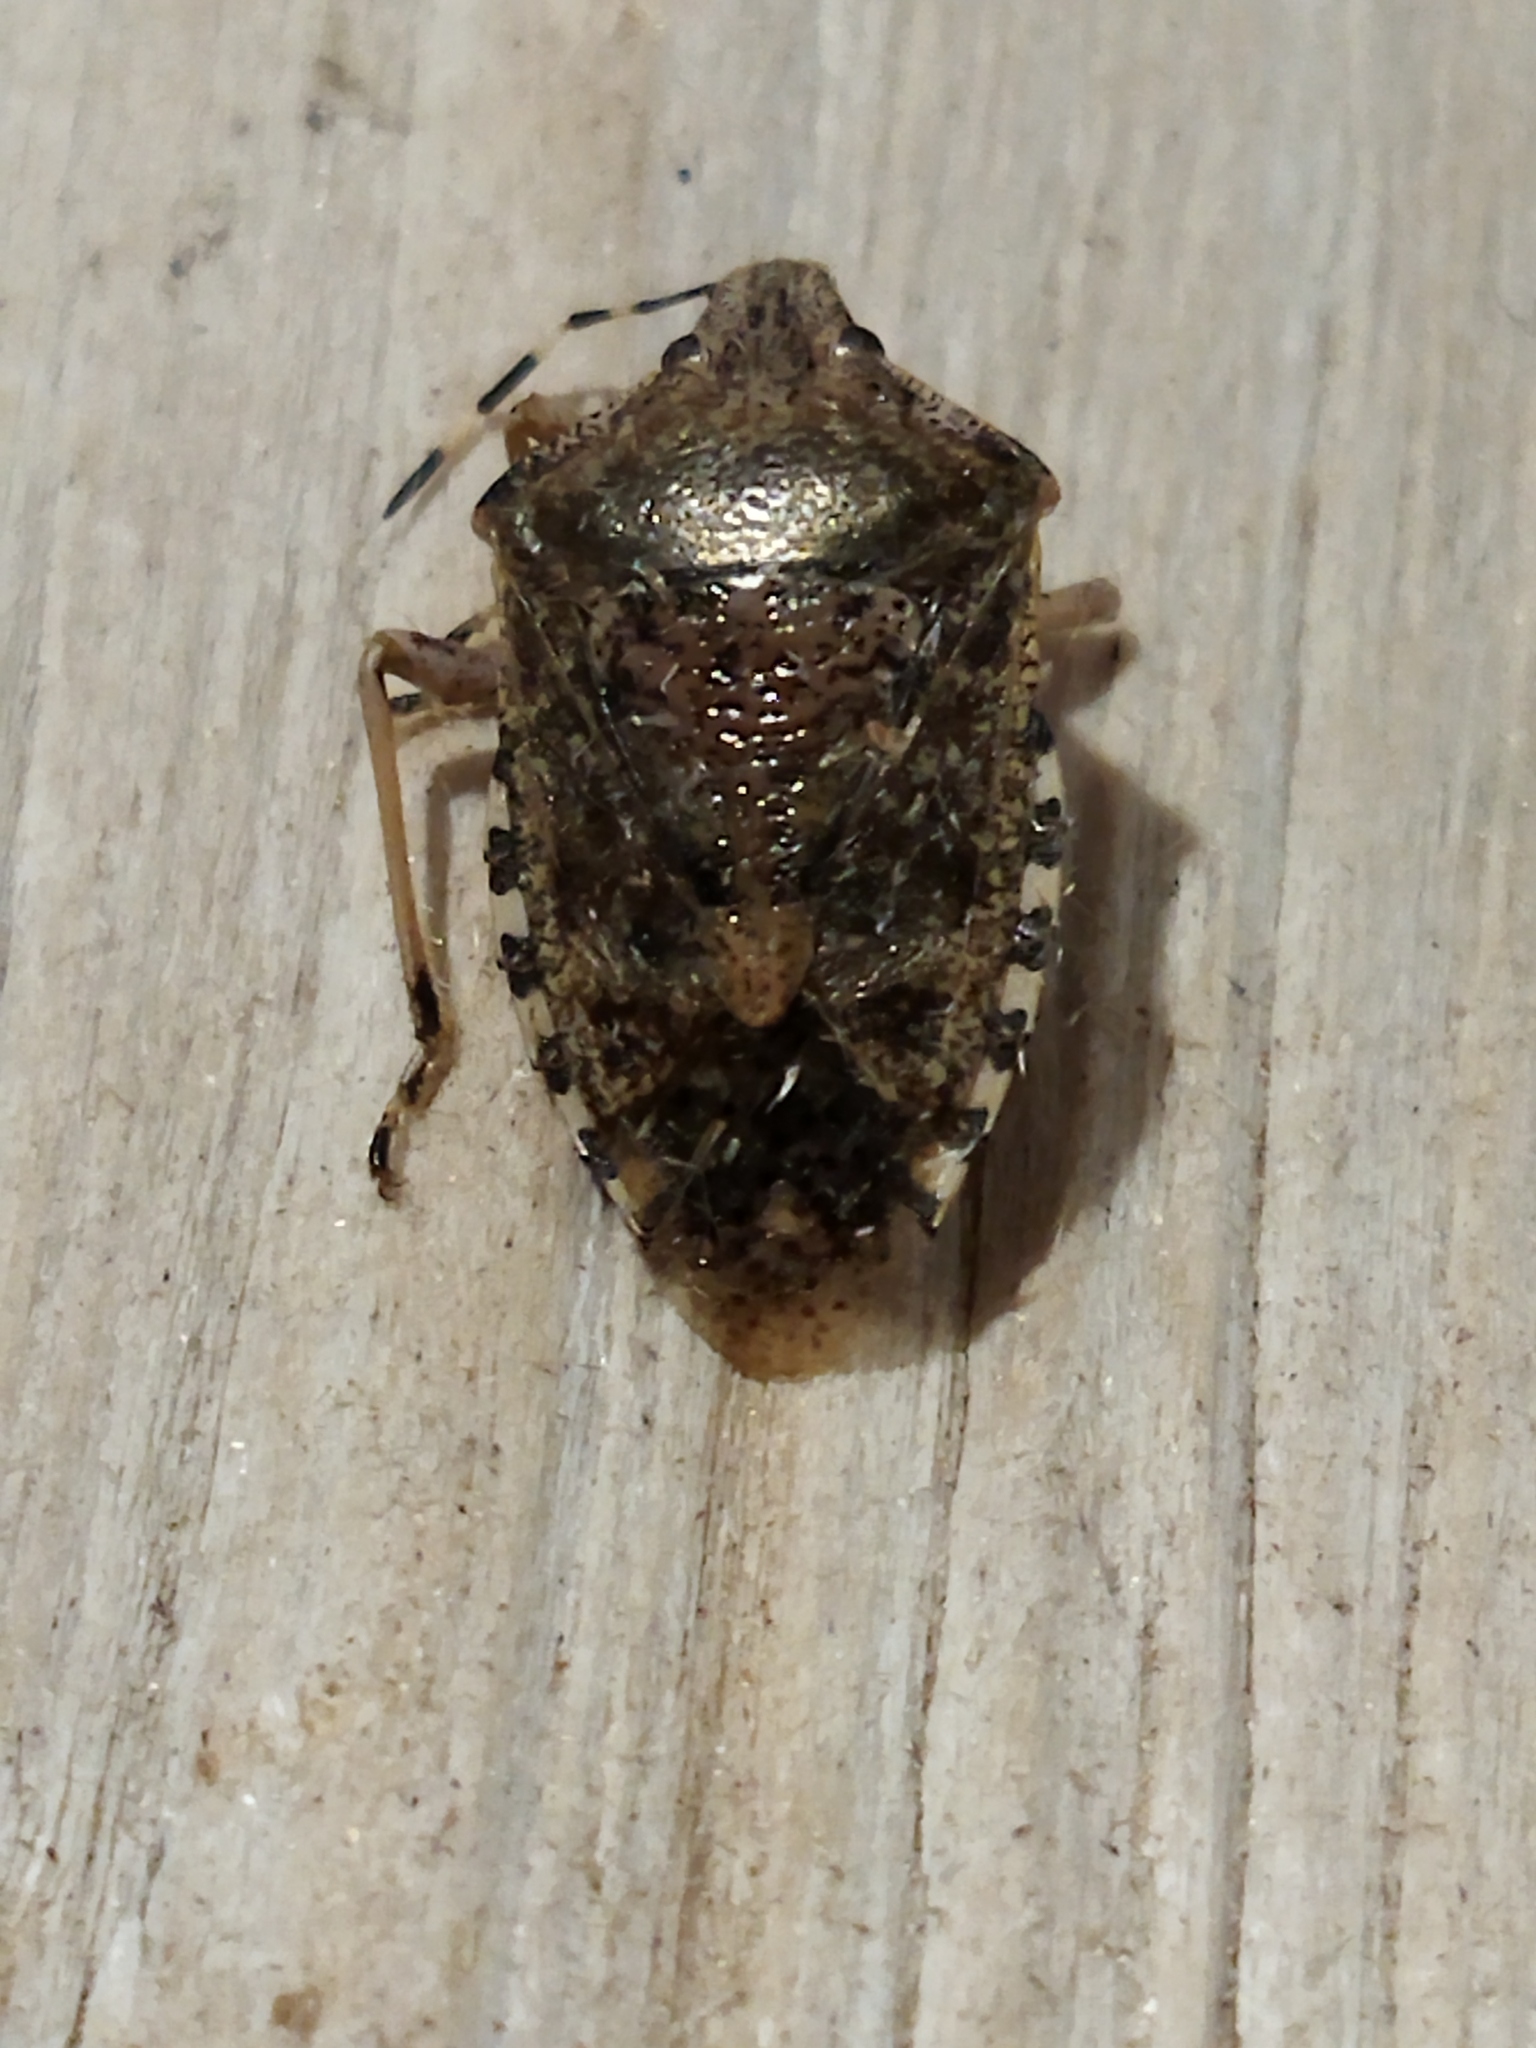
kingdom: Animalia
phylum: Arthropoda
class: Insecta
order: Hemiptera
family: Pentatomidae
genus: Rhaphigaster
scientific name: Rhaphigaster nebulosa
